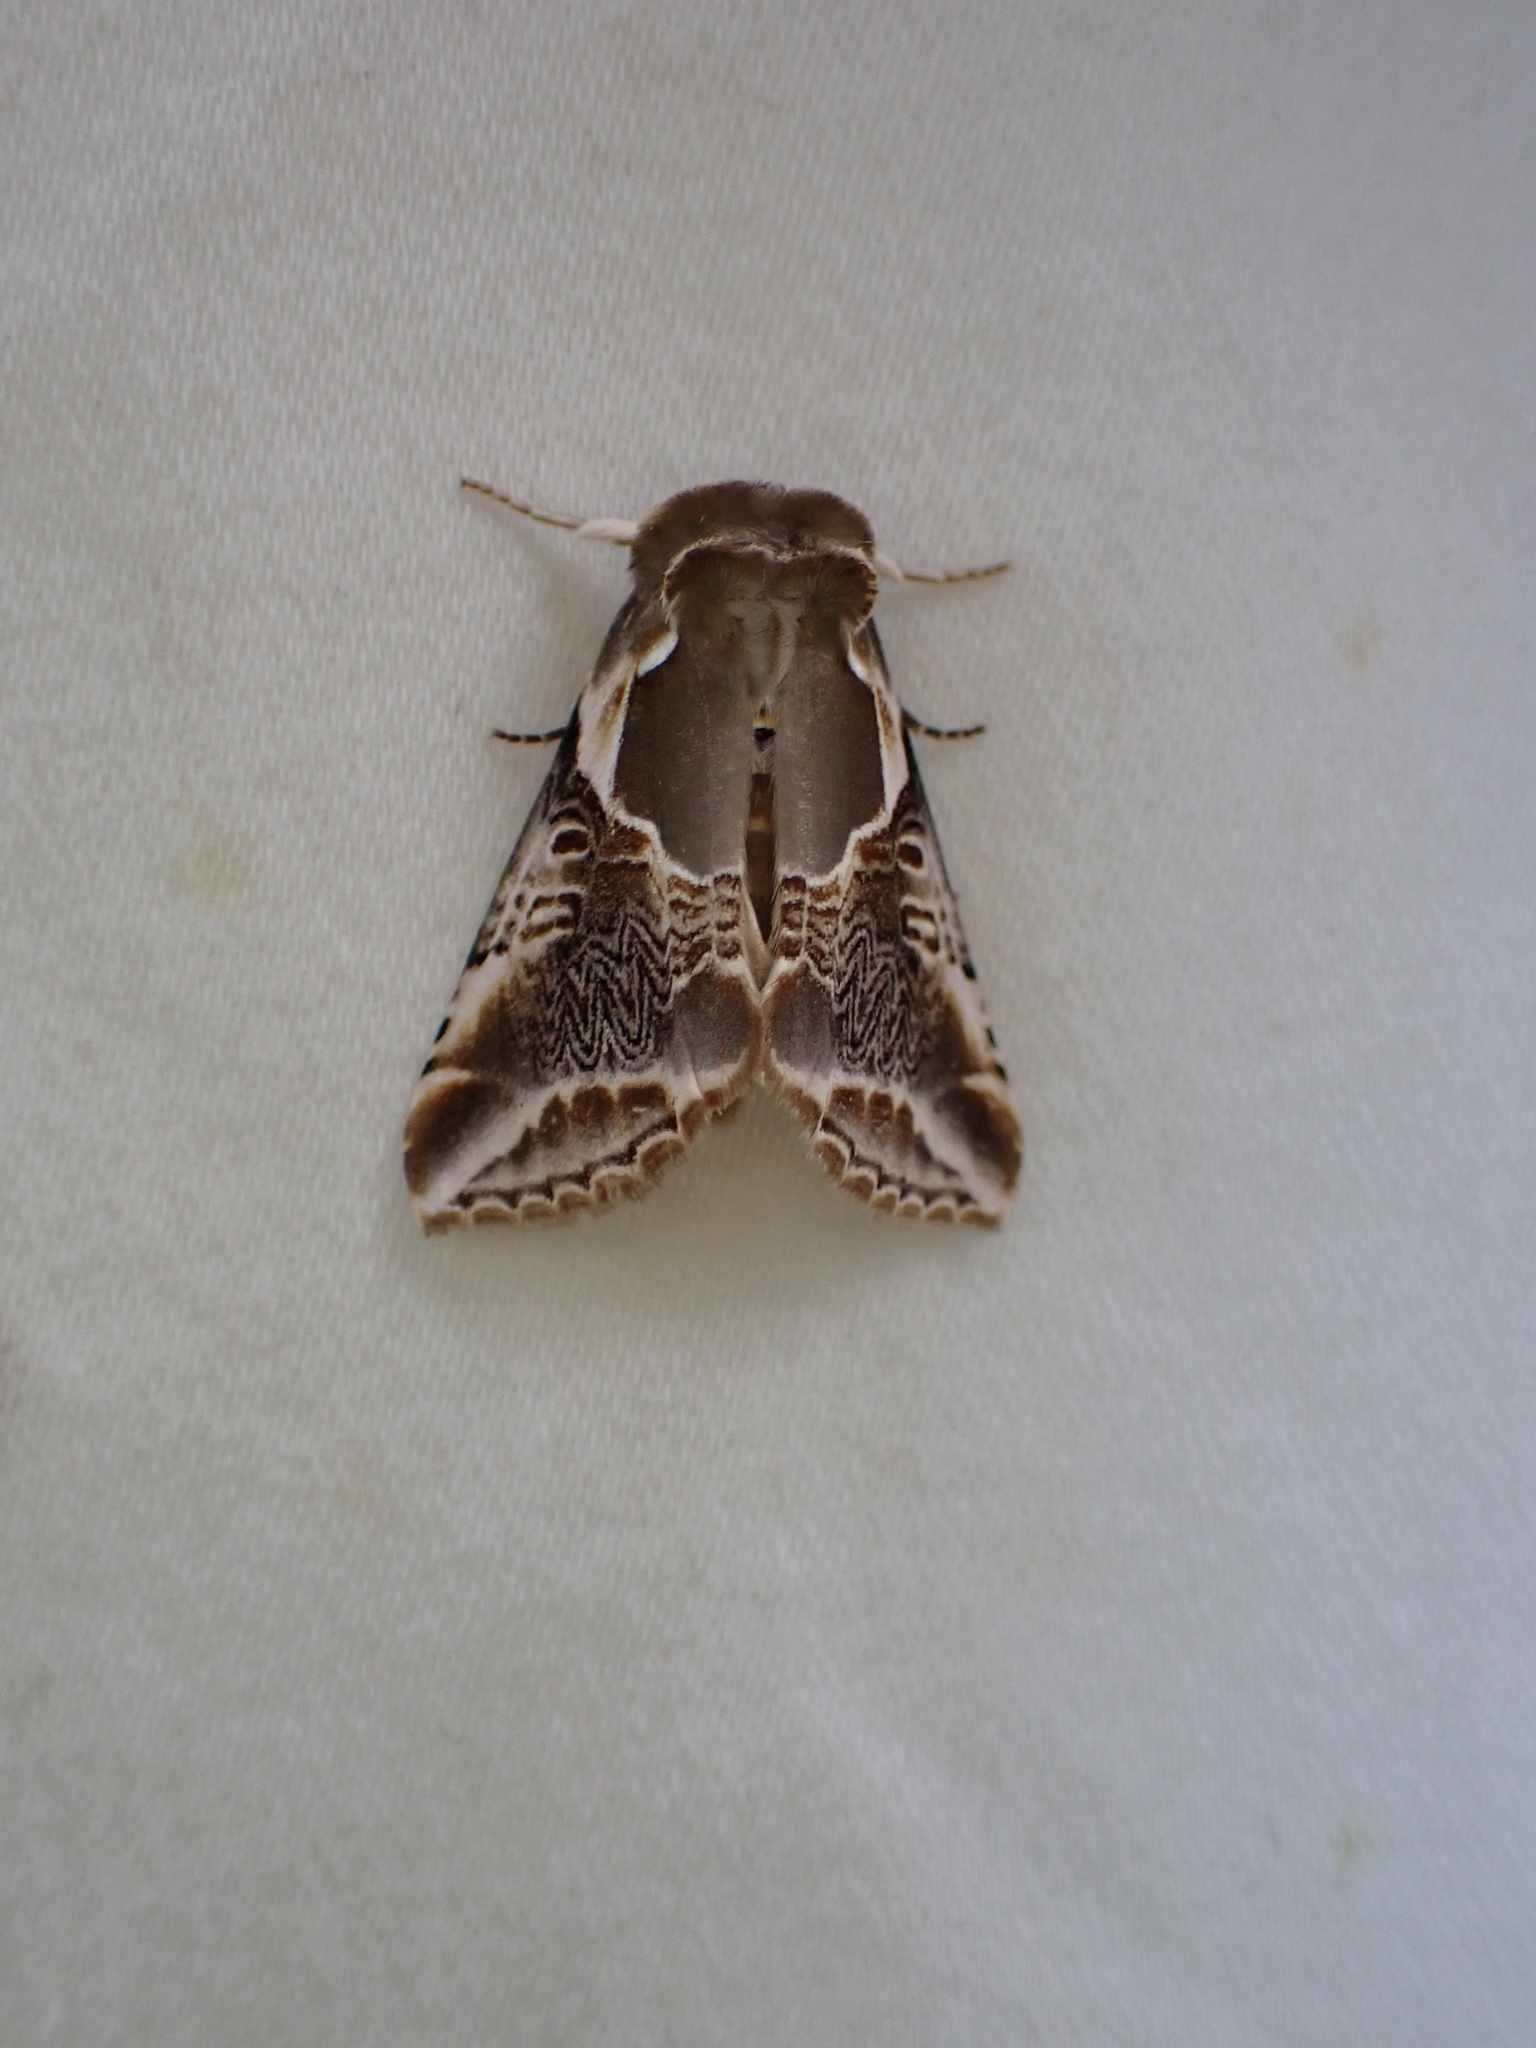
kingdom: Animalia
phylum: Arthropoda
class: Insecta
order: Lepidoptera
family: Drepanidae
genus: Habrosyne
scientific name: Habrosyne scripta
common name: Lettered habrosyne moth
